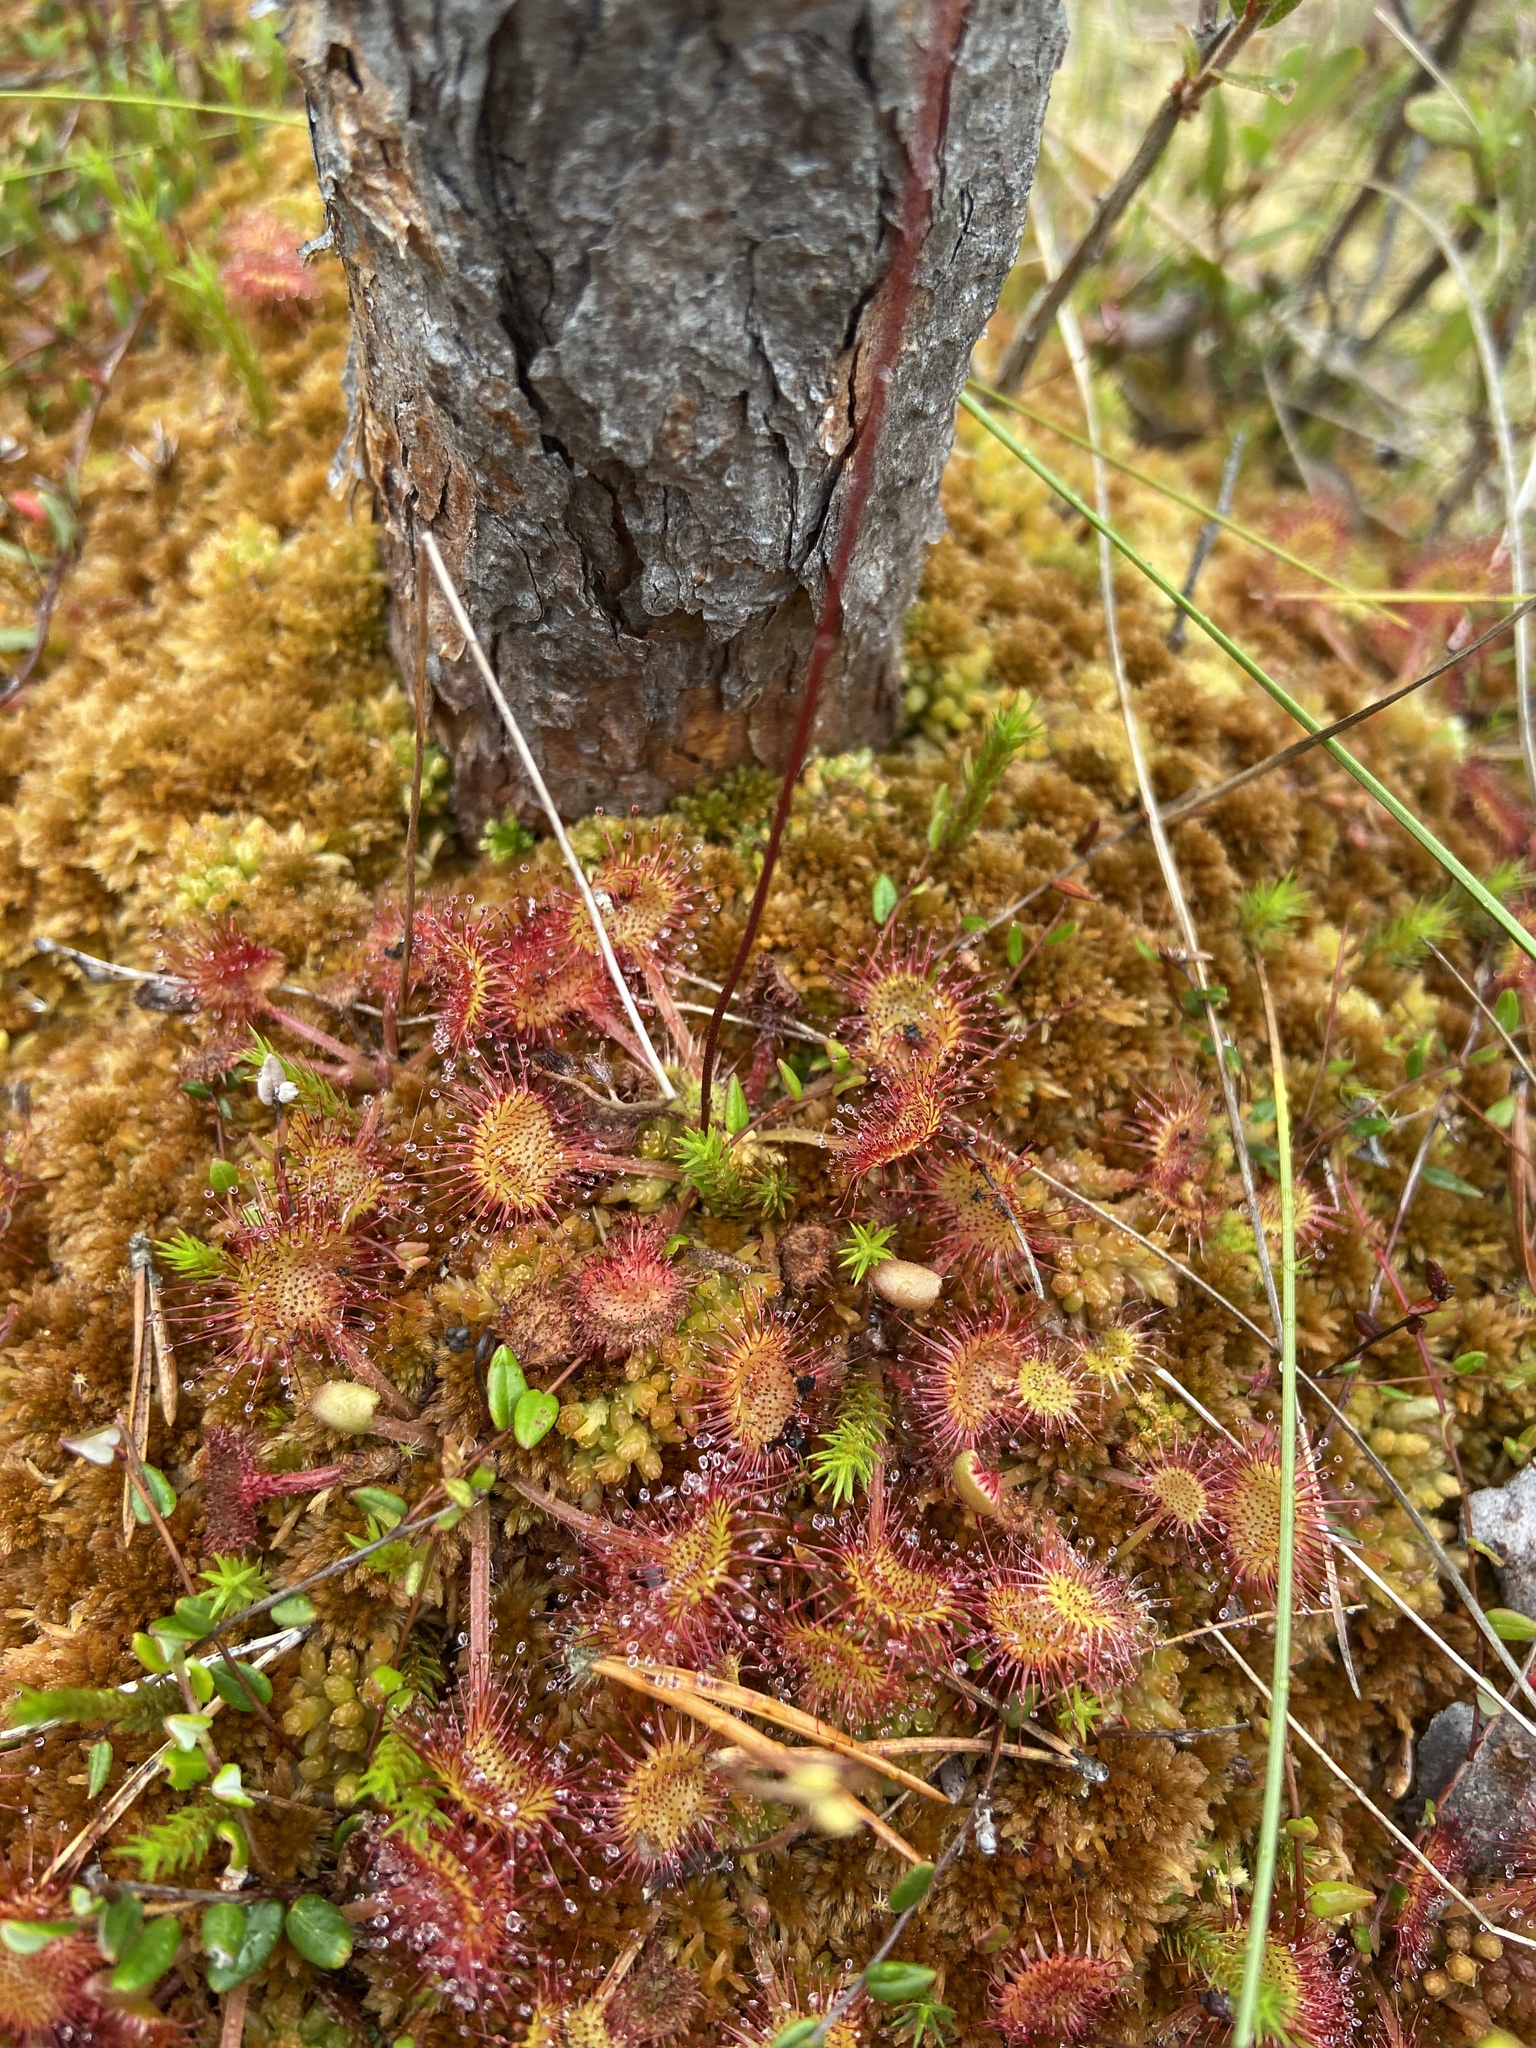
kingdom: Plantae
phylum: Tracheophyta
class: Magnoliopsida
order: Caryophyllales
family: Droseraceae
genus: Drosera
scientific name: Drosera rotundifolia
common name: Round-leaved sundew
